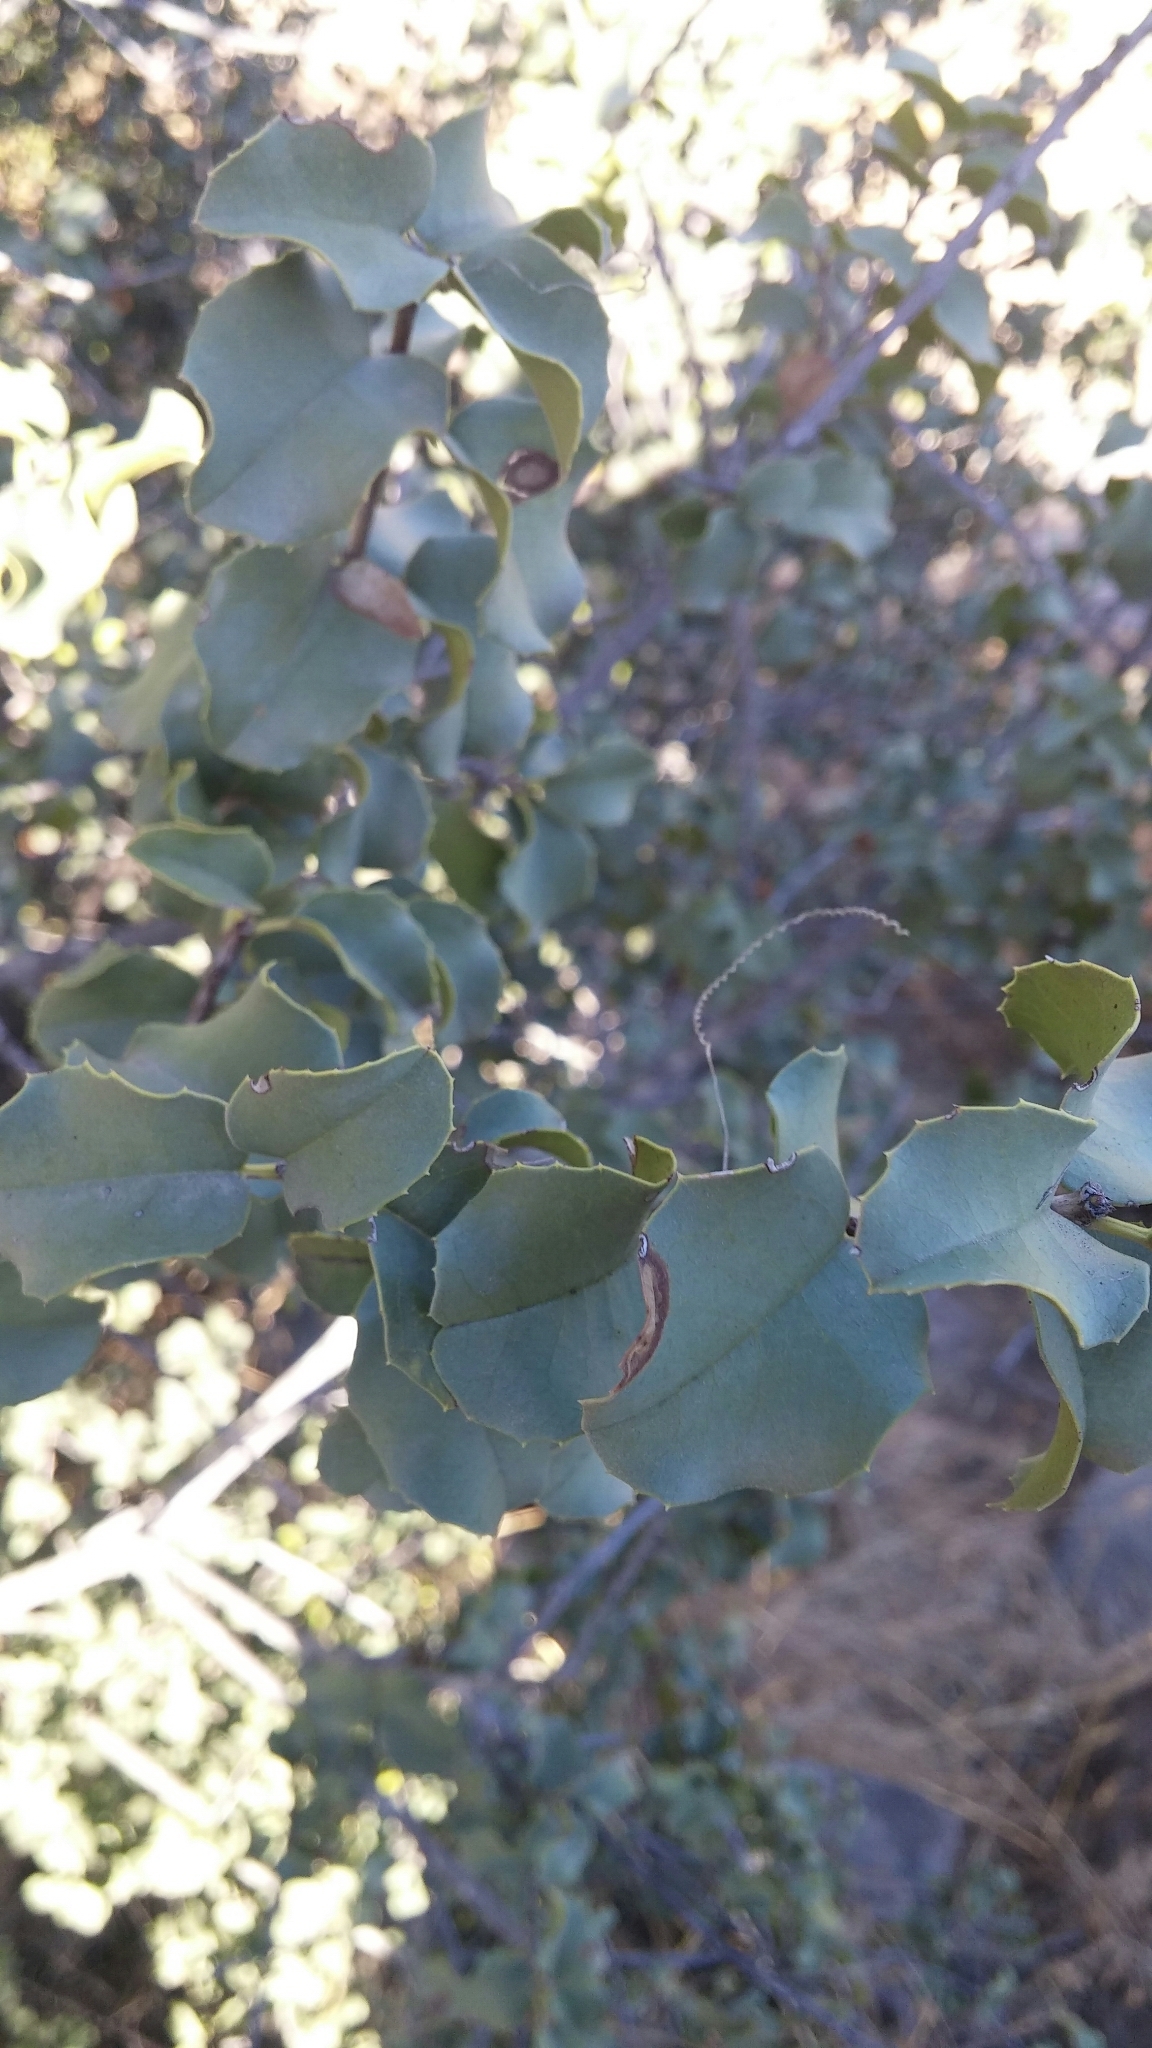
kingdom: Plantae
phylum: Tracheophyta
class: Magnoliopsida
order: Rosales
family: Rosaceae
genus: Prunus
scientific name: Prunus ilicifolia
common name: Hollyleaf cherry
